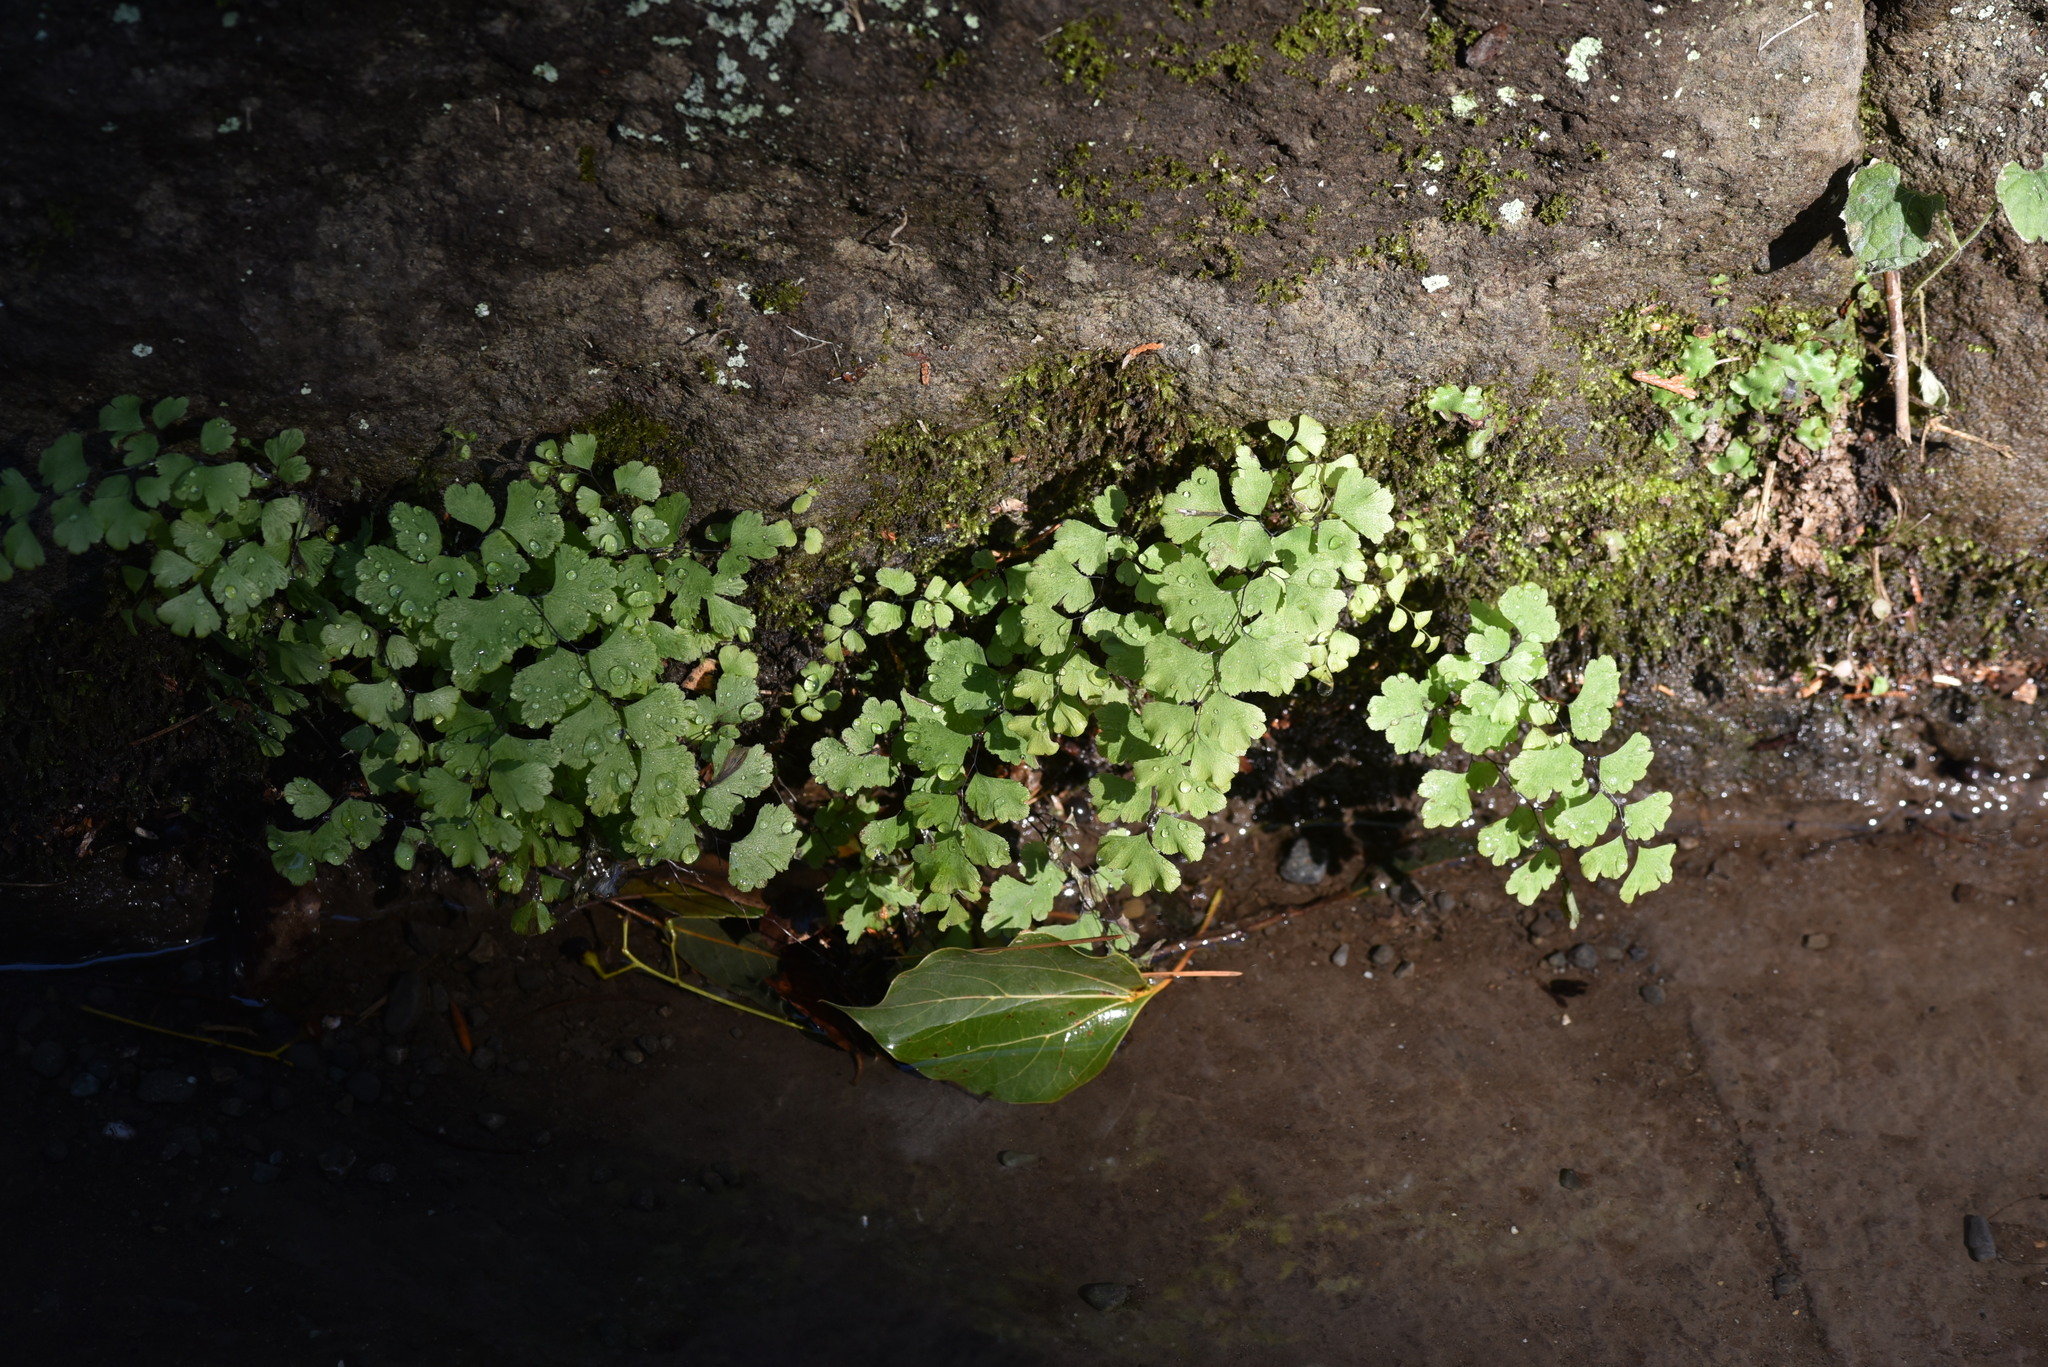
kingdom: Plantae
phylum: Tracheophyta
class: Polypodiopsida
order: Polypodiales
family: Pteridaceae
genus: Adiantum
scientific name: Adiantum capillus-veneris
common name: Maidenhair fern
